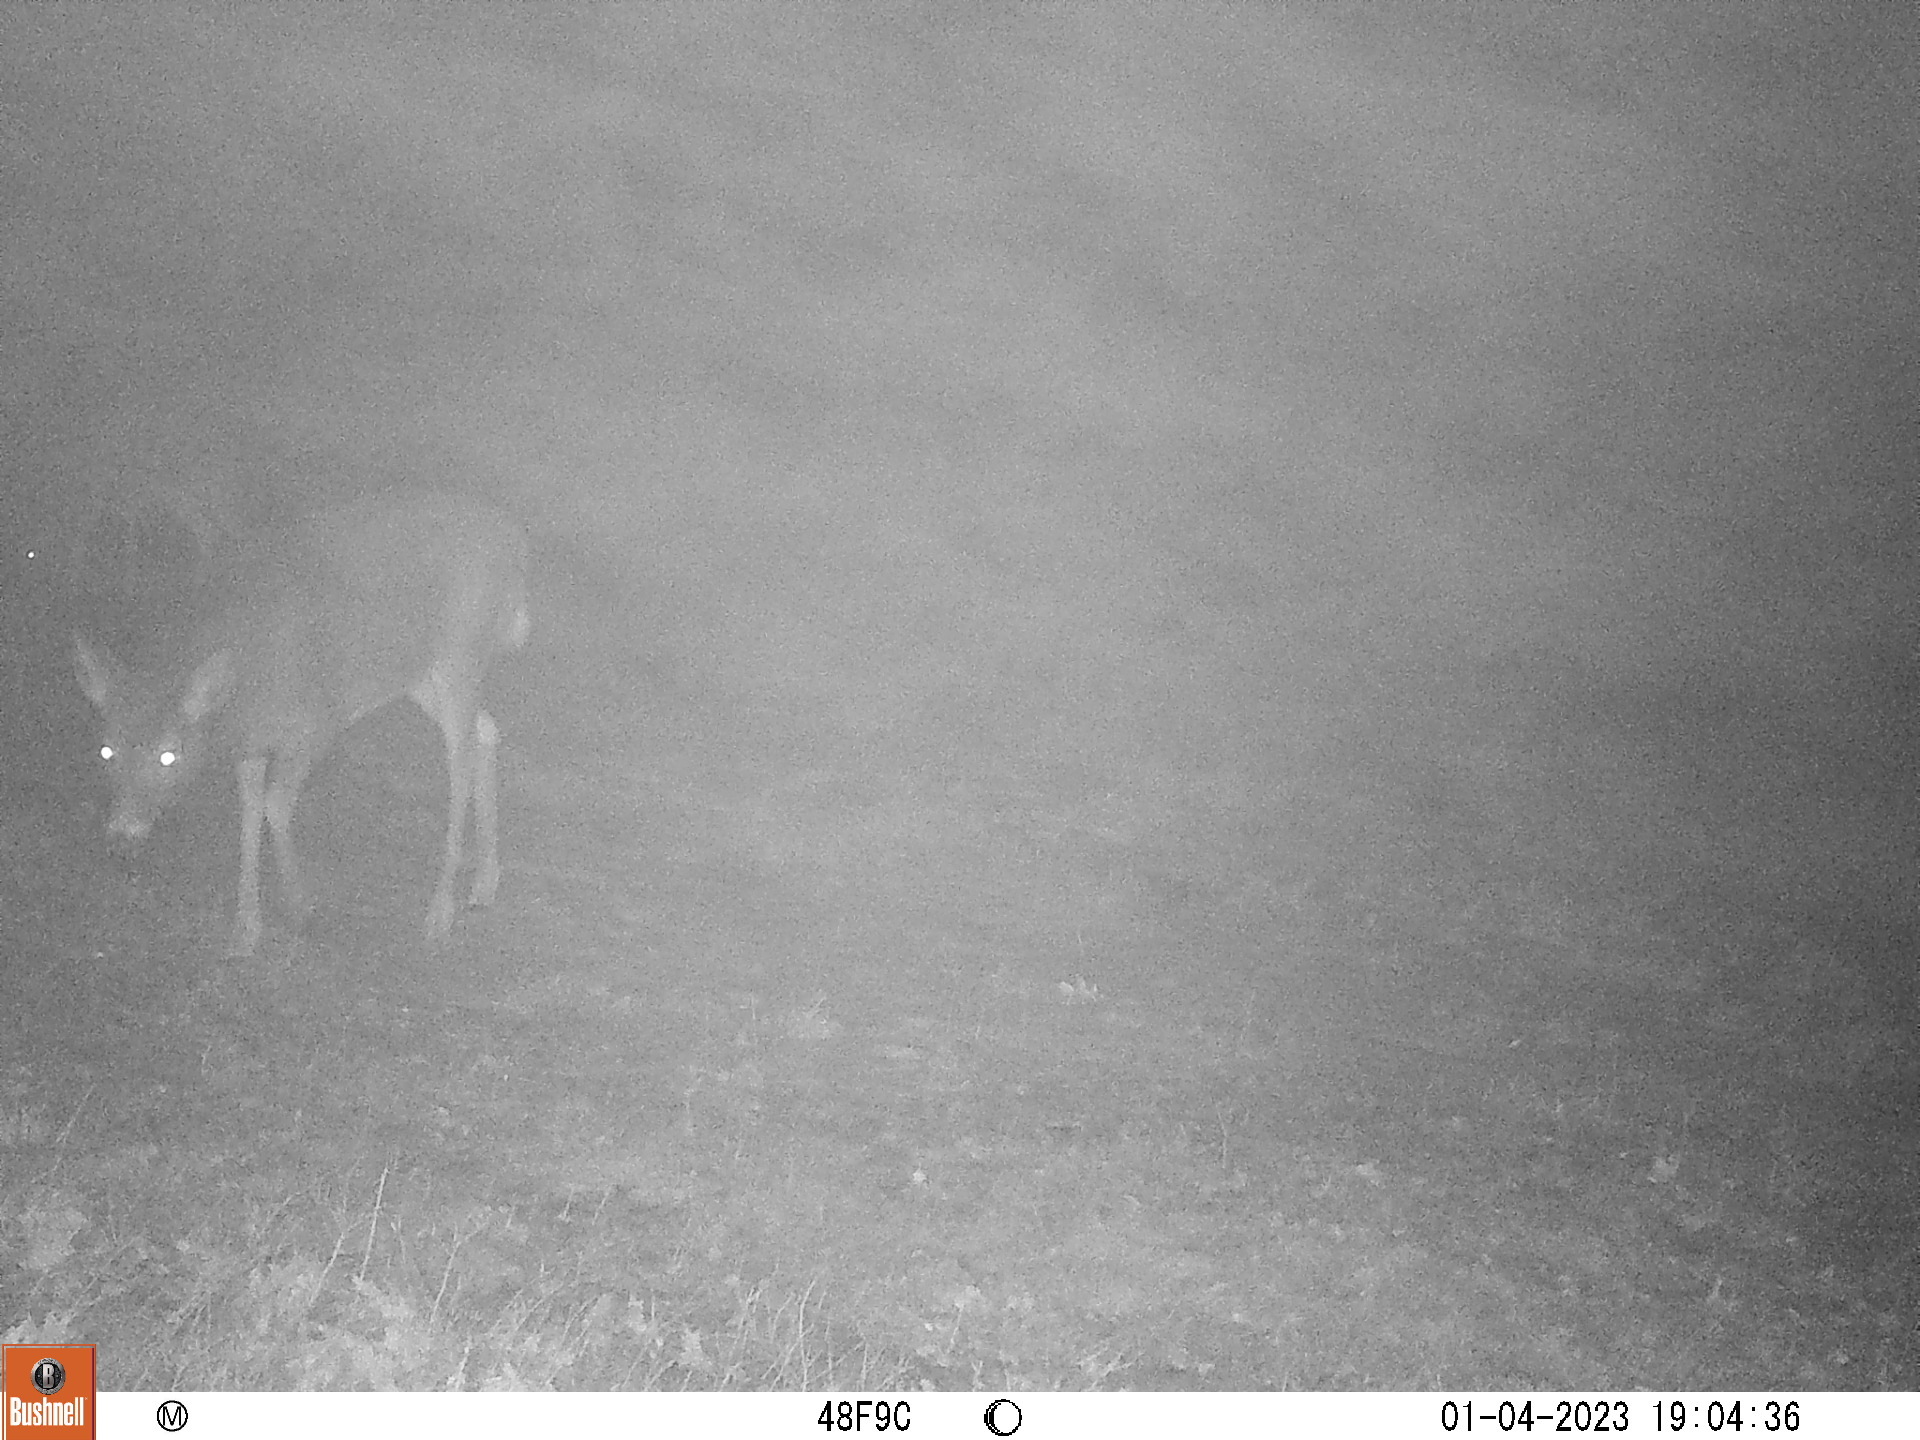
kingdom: Animalia
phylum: Chordata
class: Mammalia
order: Artiodactyla
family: Cervidae
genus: Odocoileus
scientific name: Odocoileus virginianus
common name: White-tailed deer
